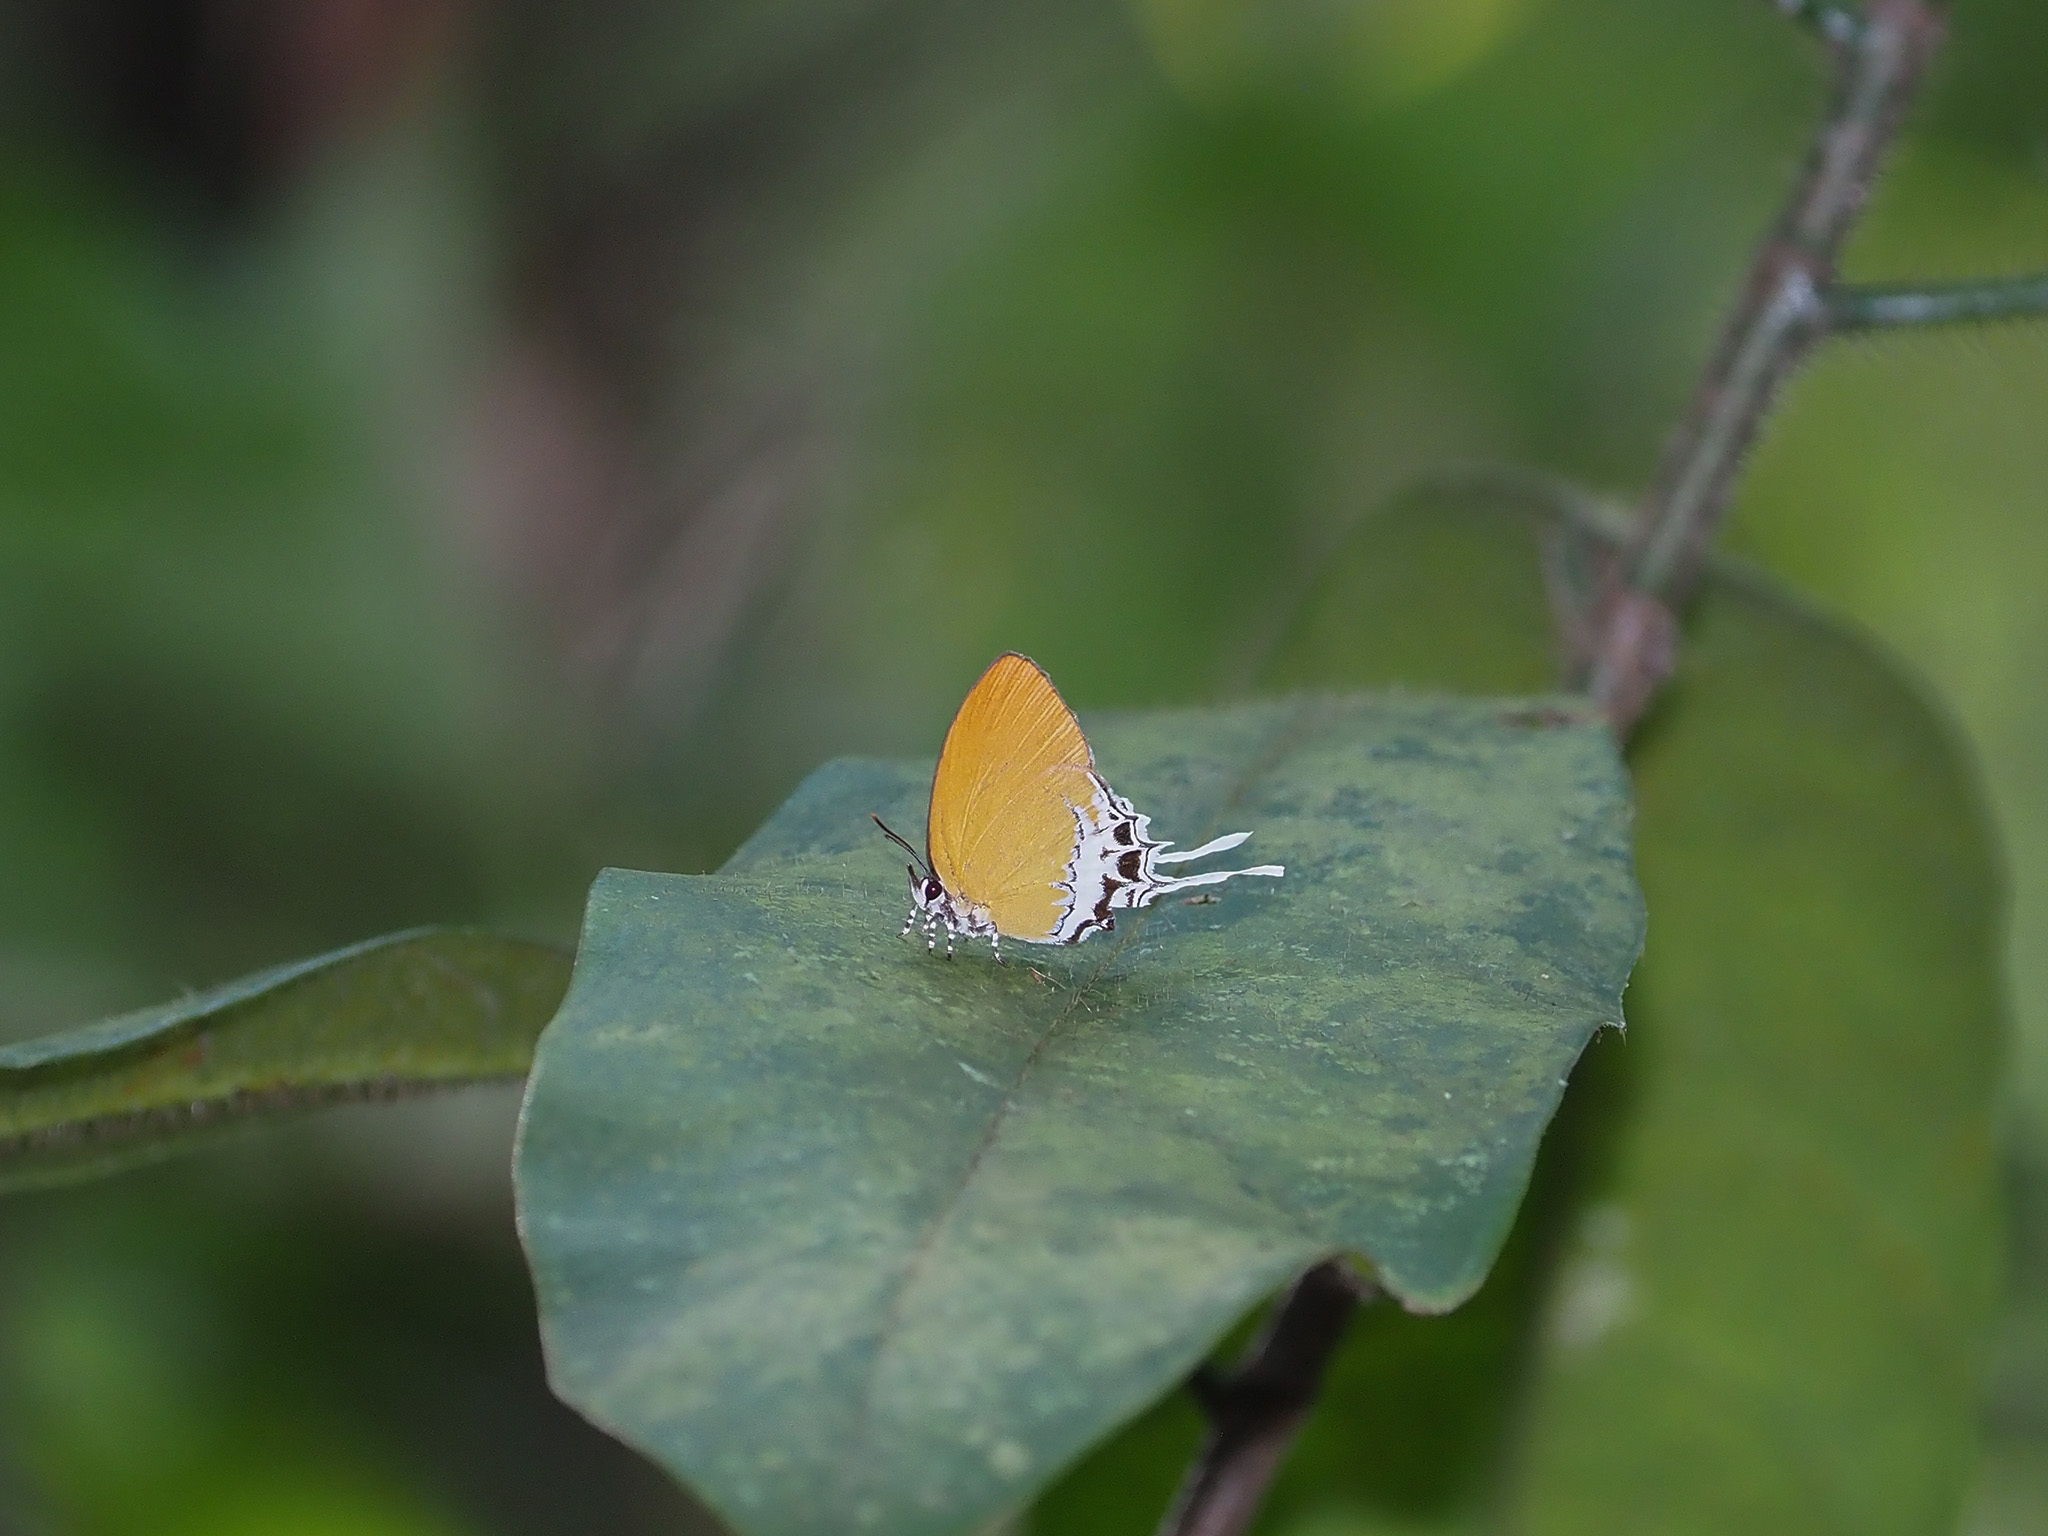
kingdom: Animalia
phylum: Arthropoda
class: Insecta
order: Lepidoptera
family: Lycaenidae
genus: Eooxylides
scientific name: Eooxylides tharis
